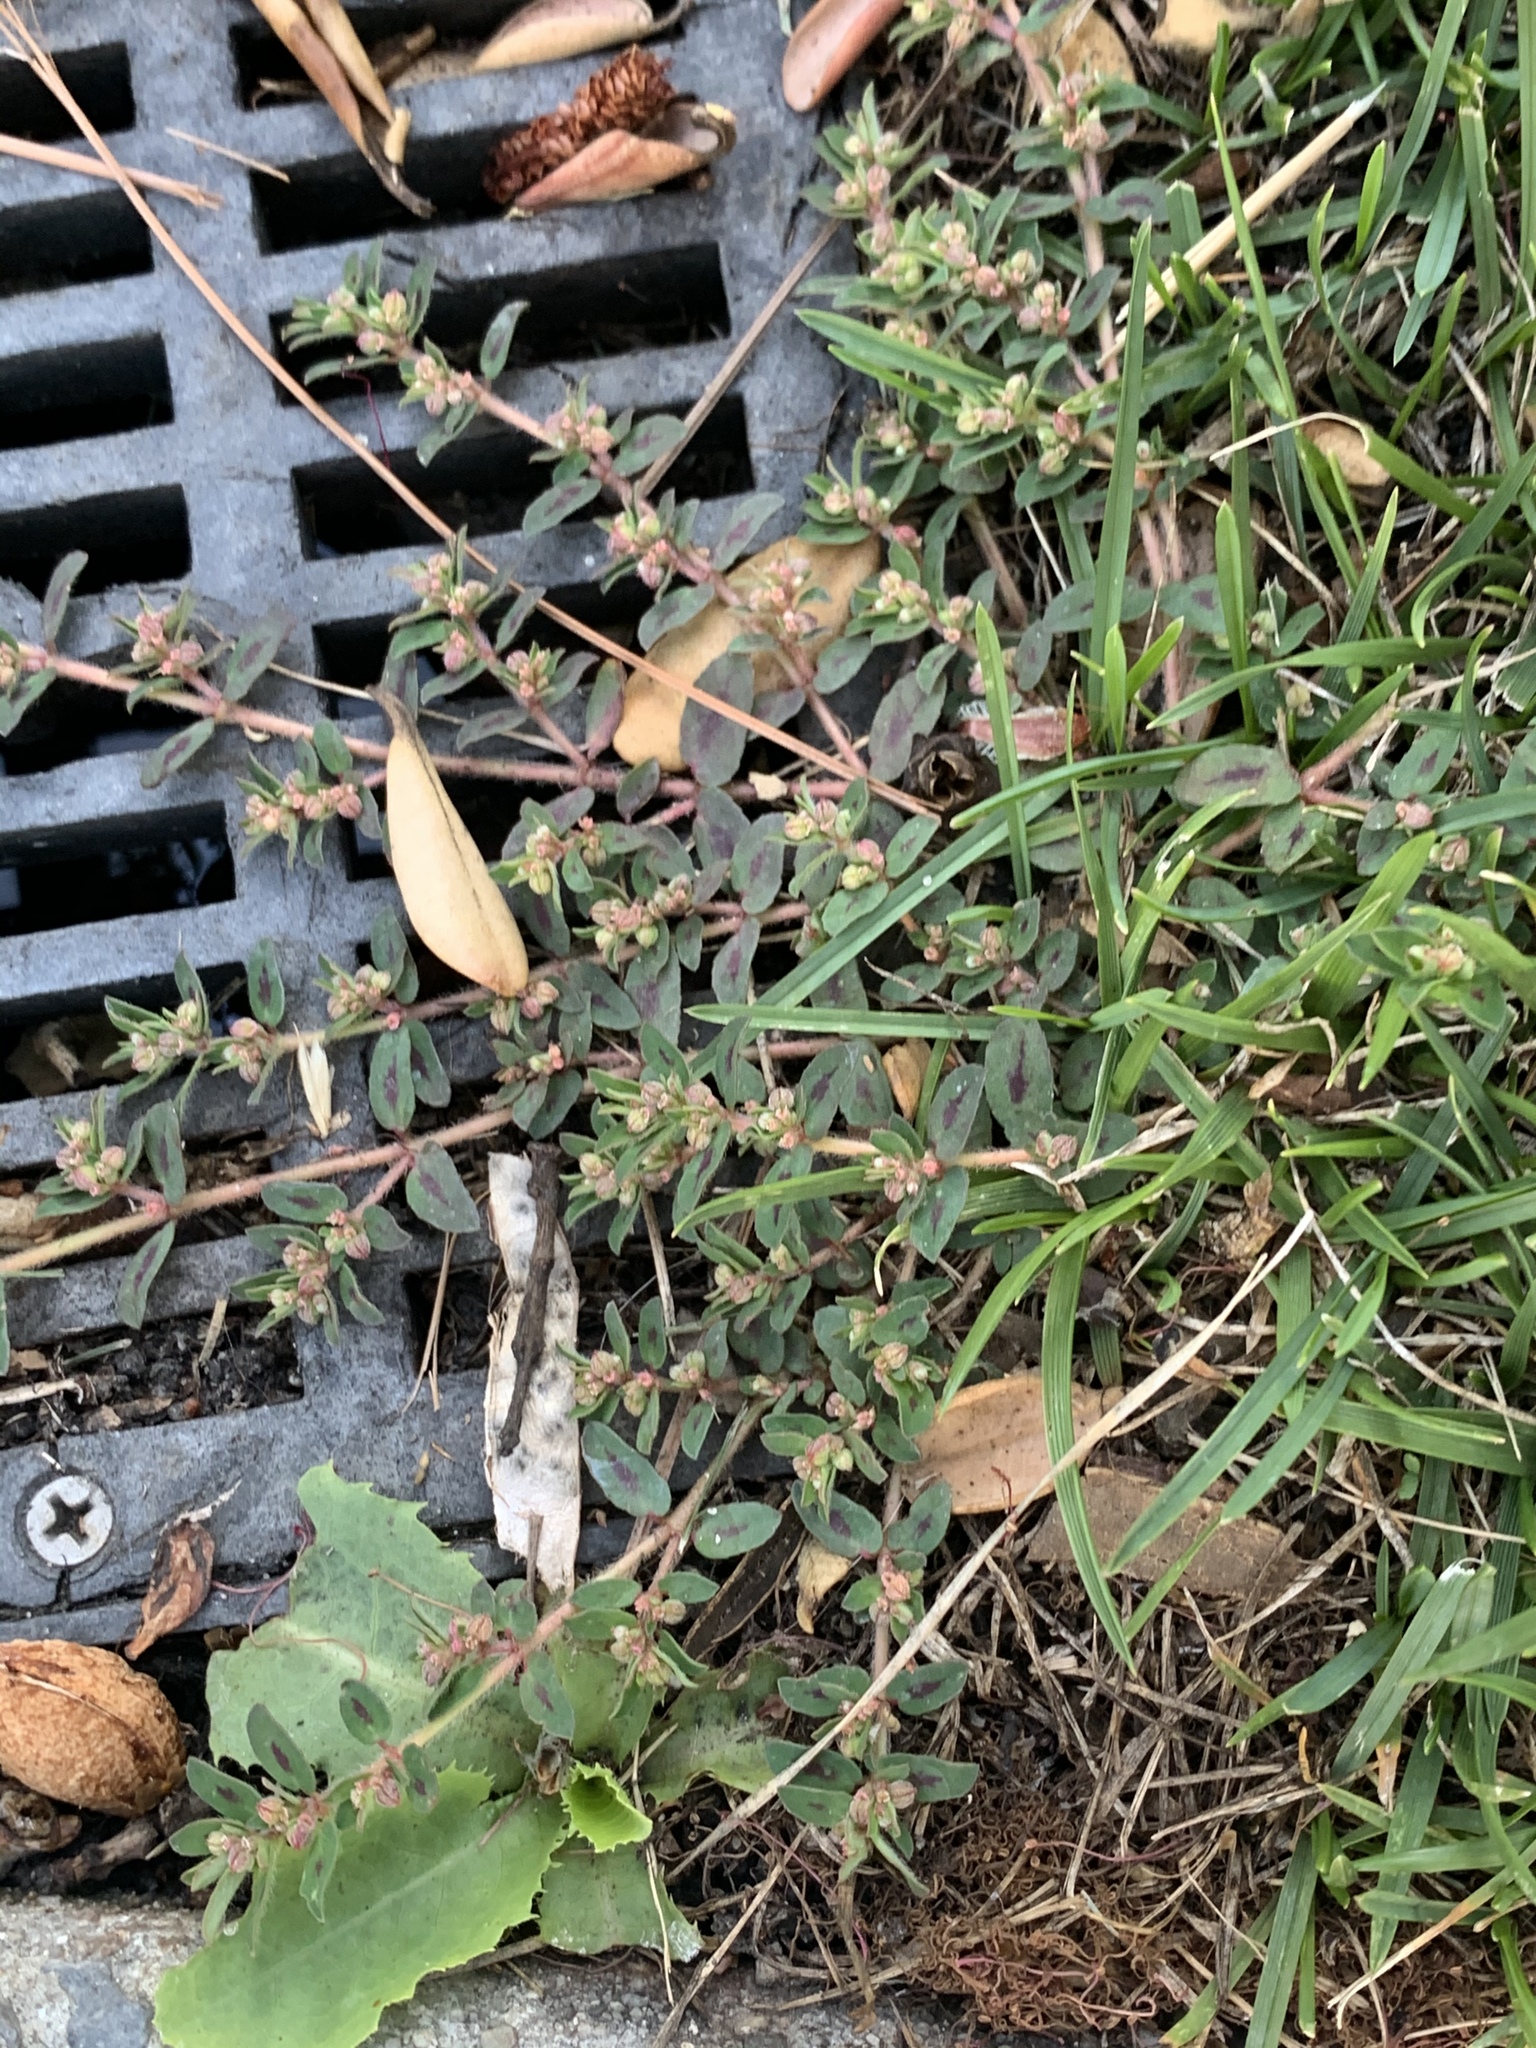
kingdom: Plantae
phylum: Tracheophyta
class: Magnoliopsida
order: Malpighiales
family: Euphorbiaceae
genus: Euphorbia
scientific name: Euphorbia maculata
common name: Spotted spurge
